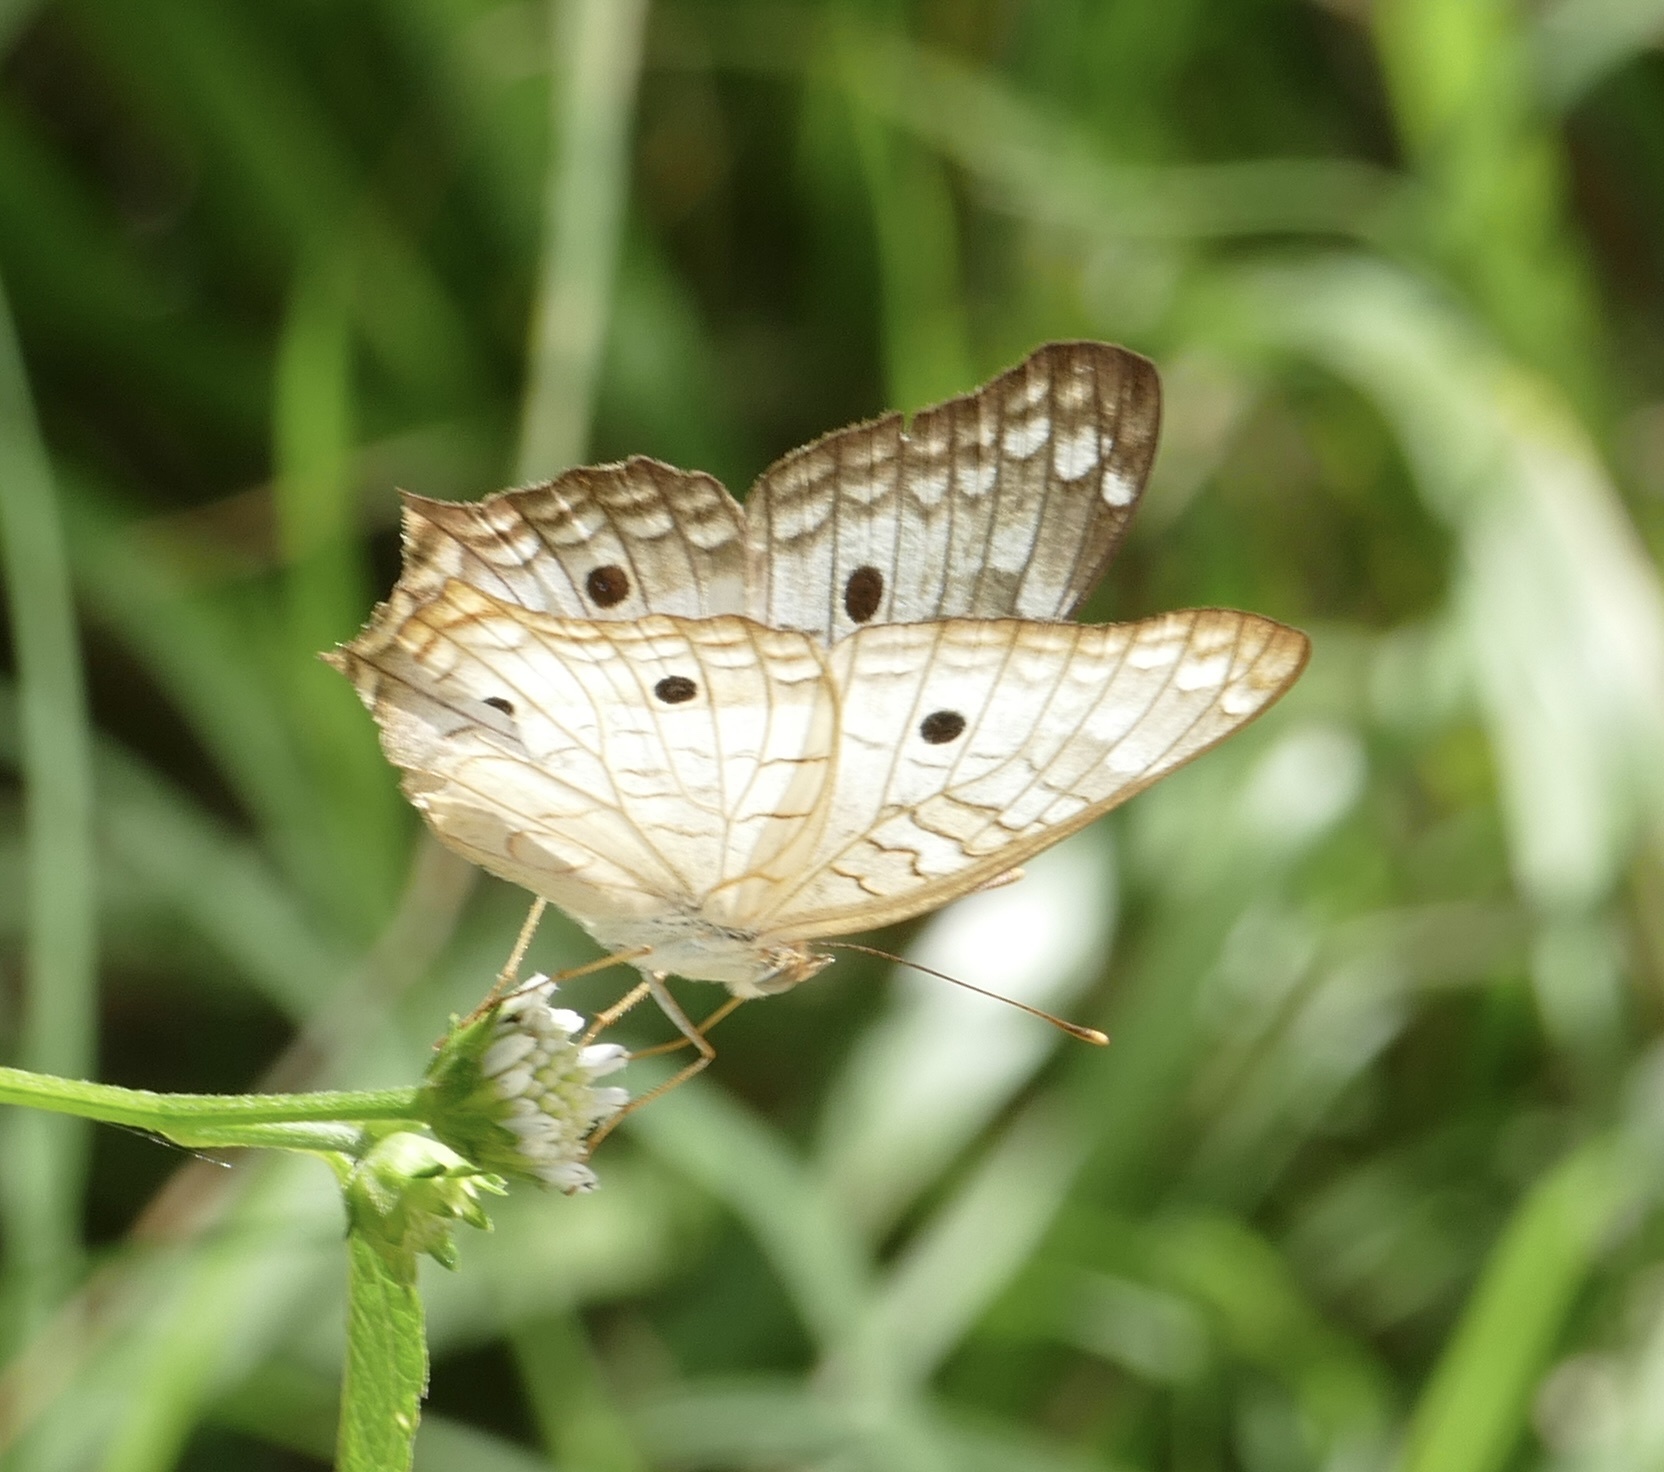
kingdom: Animalia
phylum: Arthropoda
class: Insecta
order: Lepidoptera
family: Nymphalidae
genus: Anartia
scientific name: Anartia jatrophae
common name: White peacock
